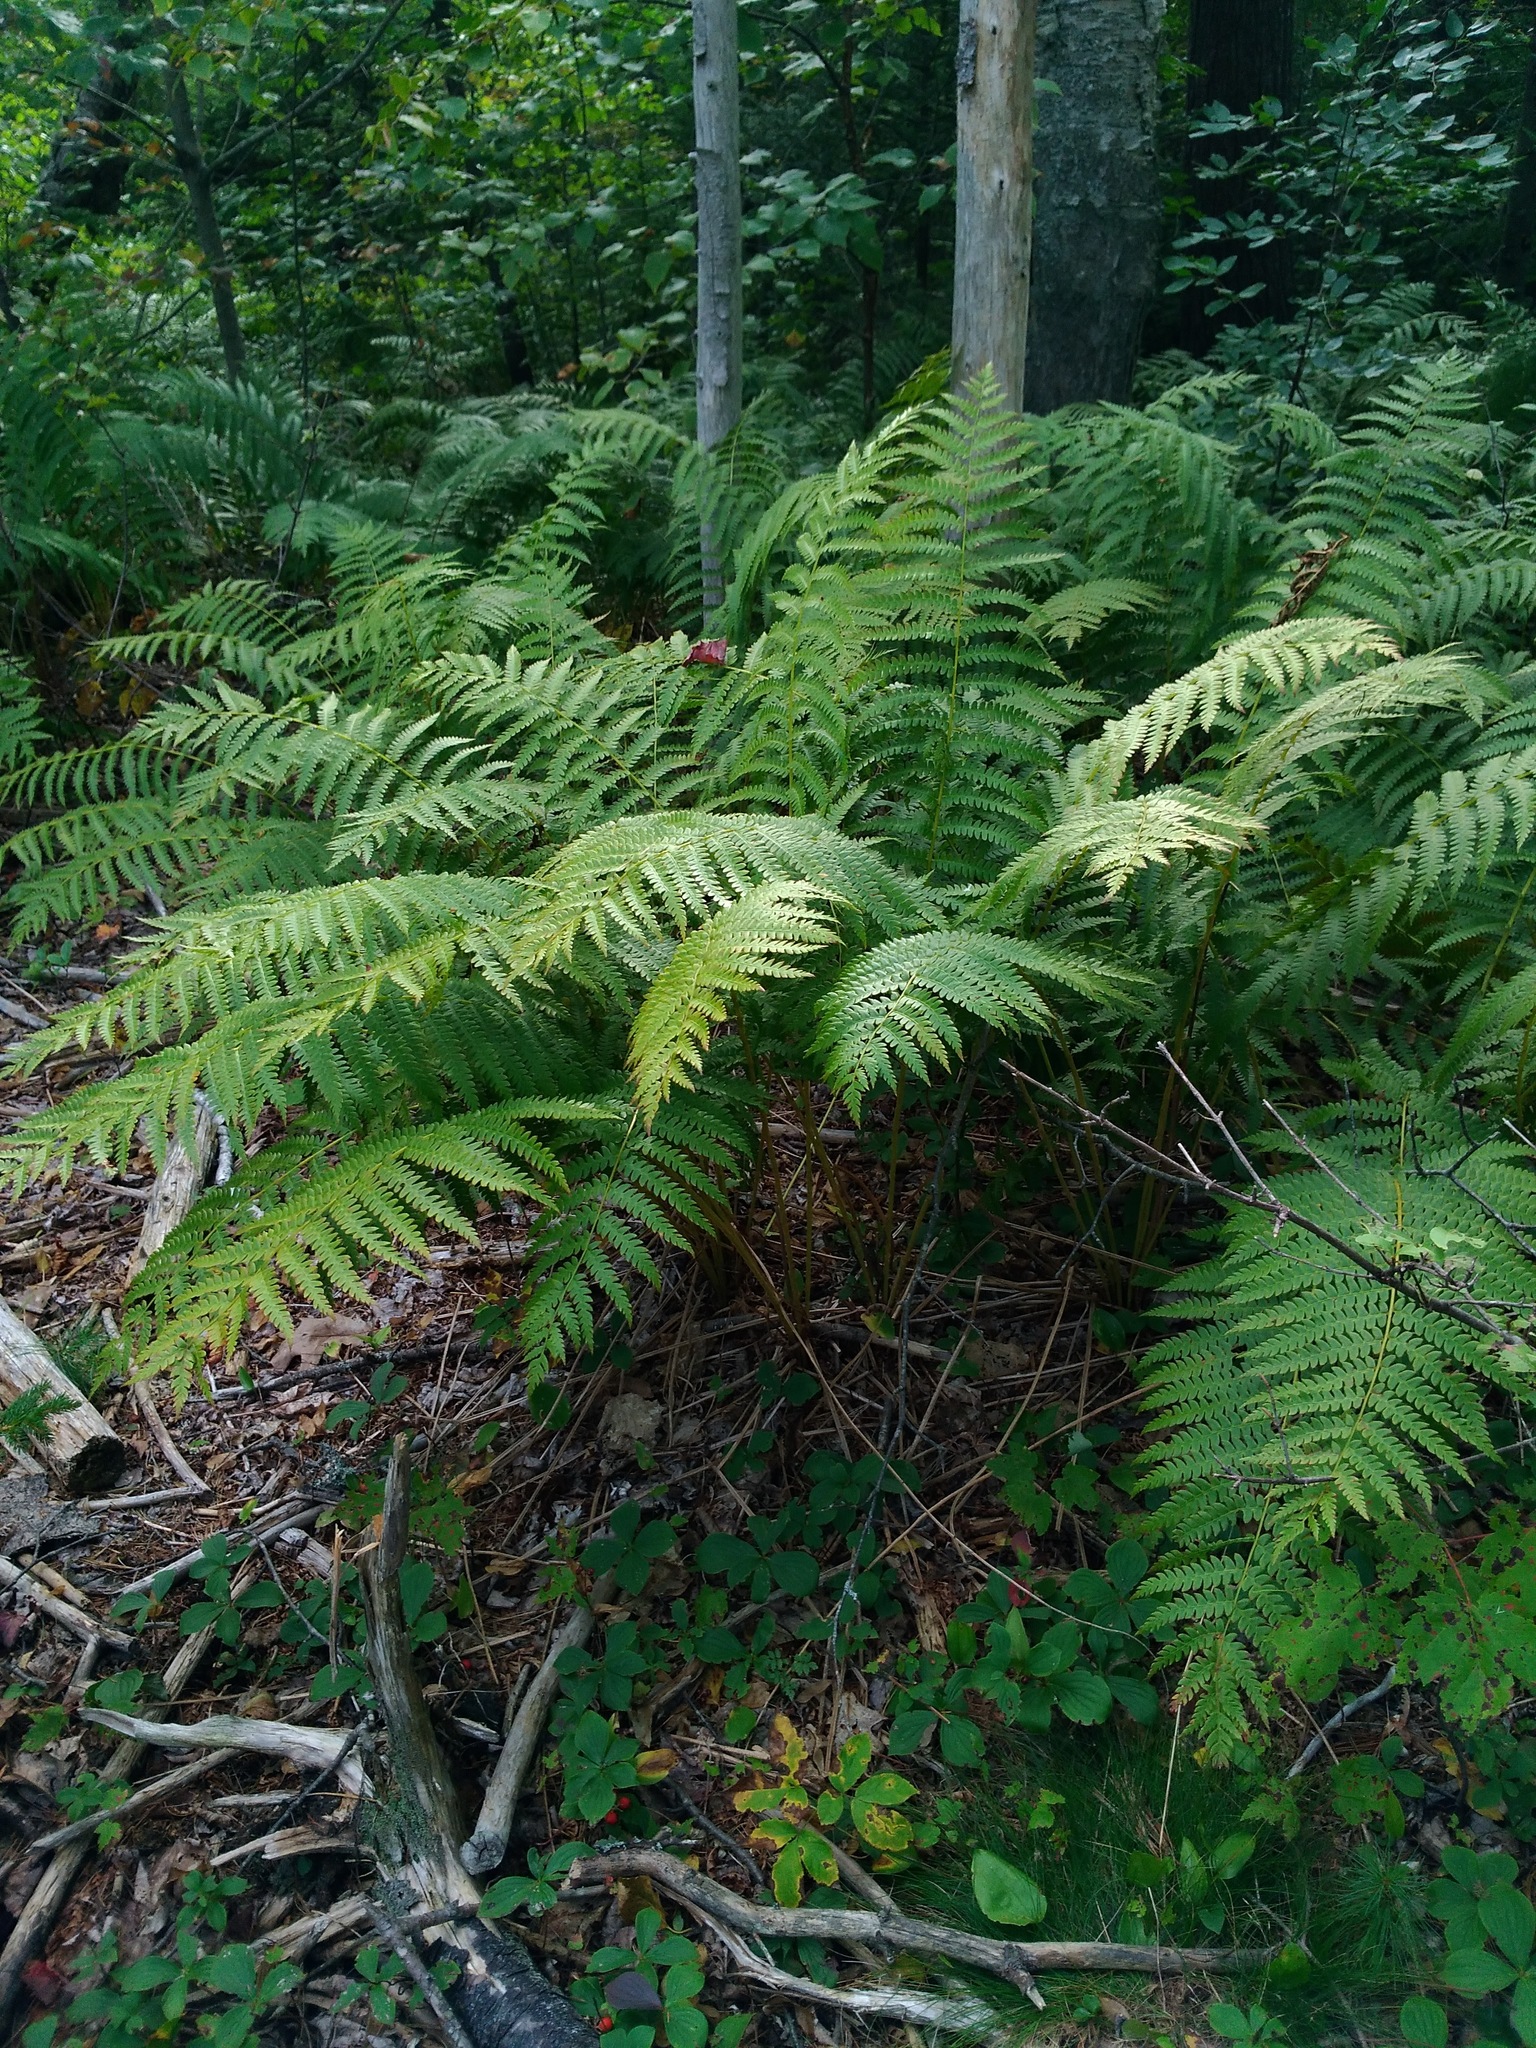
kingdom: Plantae
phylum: Tracheophyta
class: Polypodiopsida
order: Osmundales
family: Osmundaceae
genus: Osmundastrum
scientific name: Osmundastrum cinnamomeum
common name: Cinnamon fern
